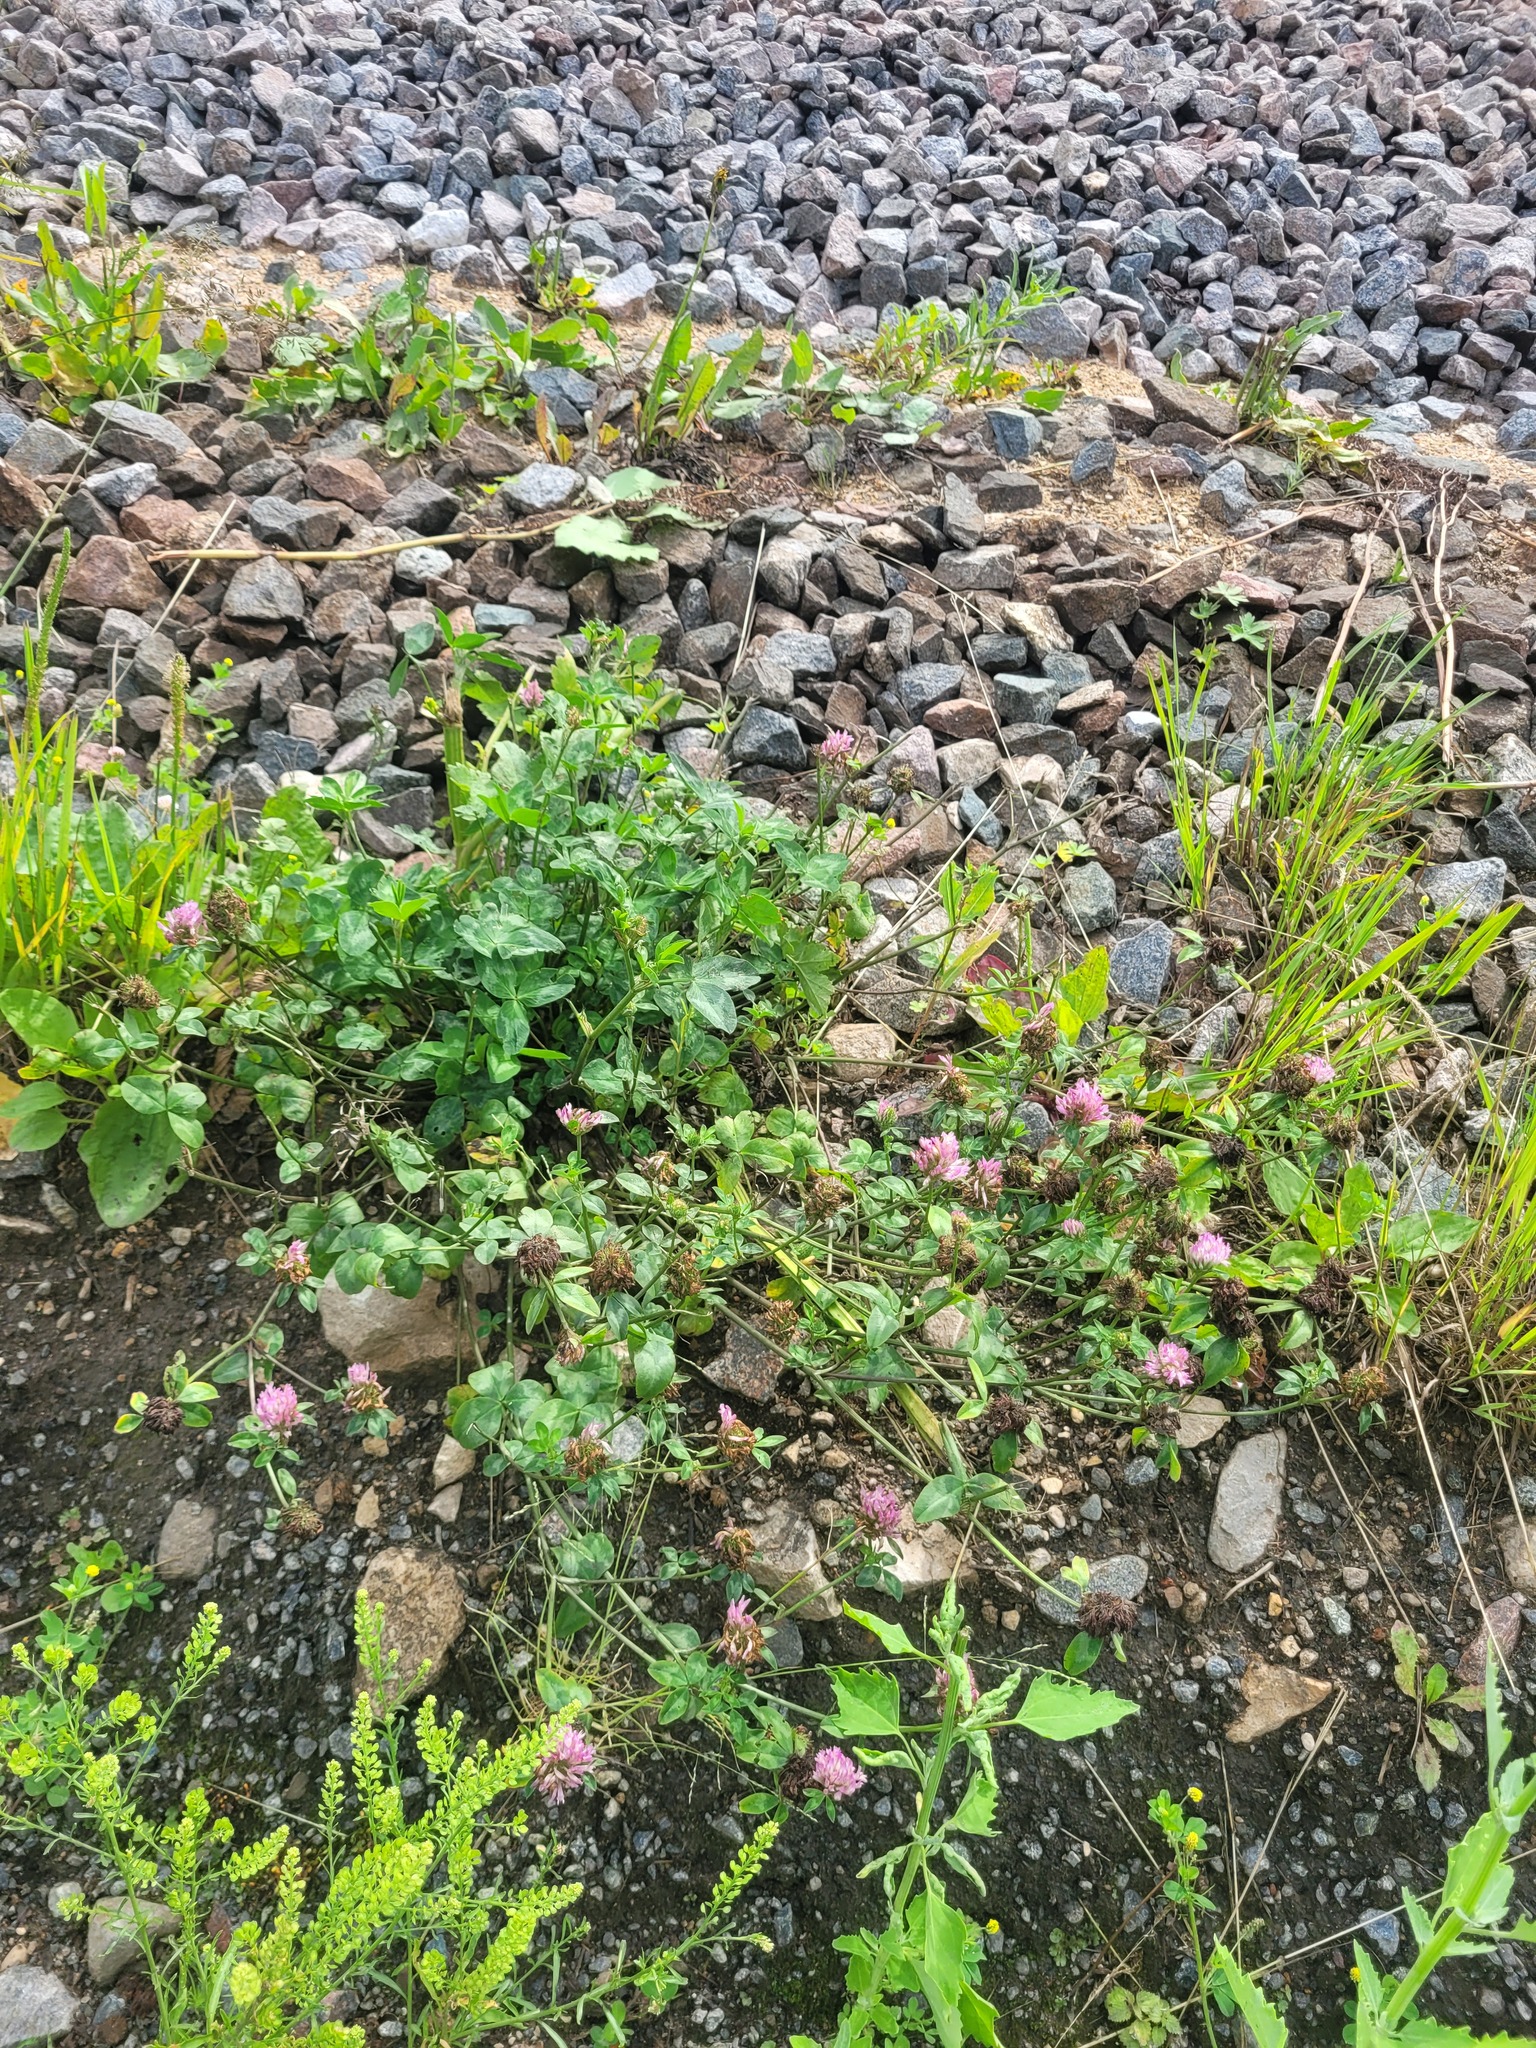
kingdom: Plantae
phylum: Tracheophyta
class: Magnoliopsida
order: Fabales
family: Fabaceae
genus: Trifolium
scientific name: Trifolium pratense
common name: Red clover
